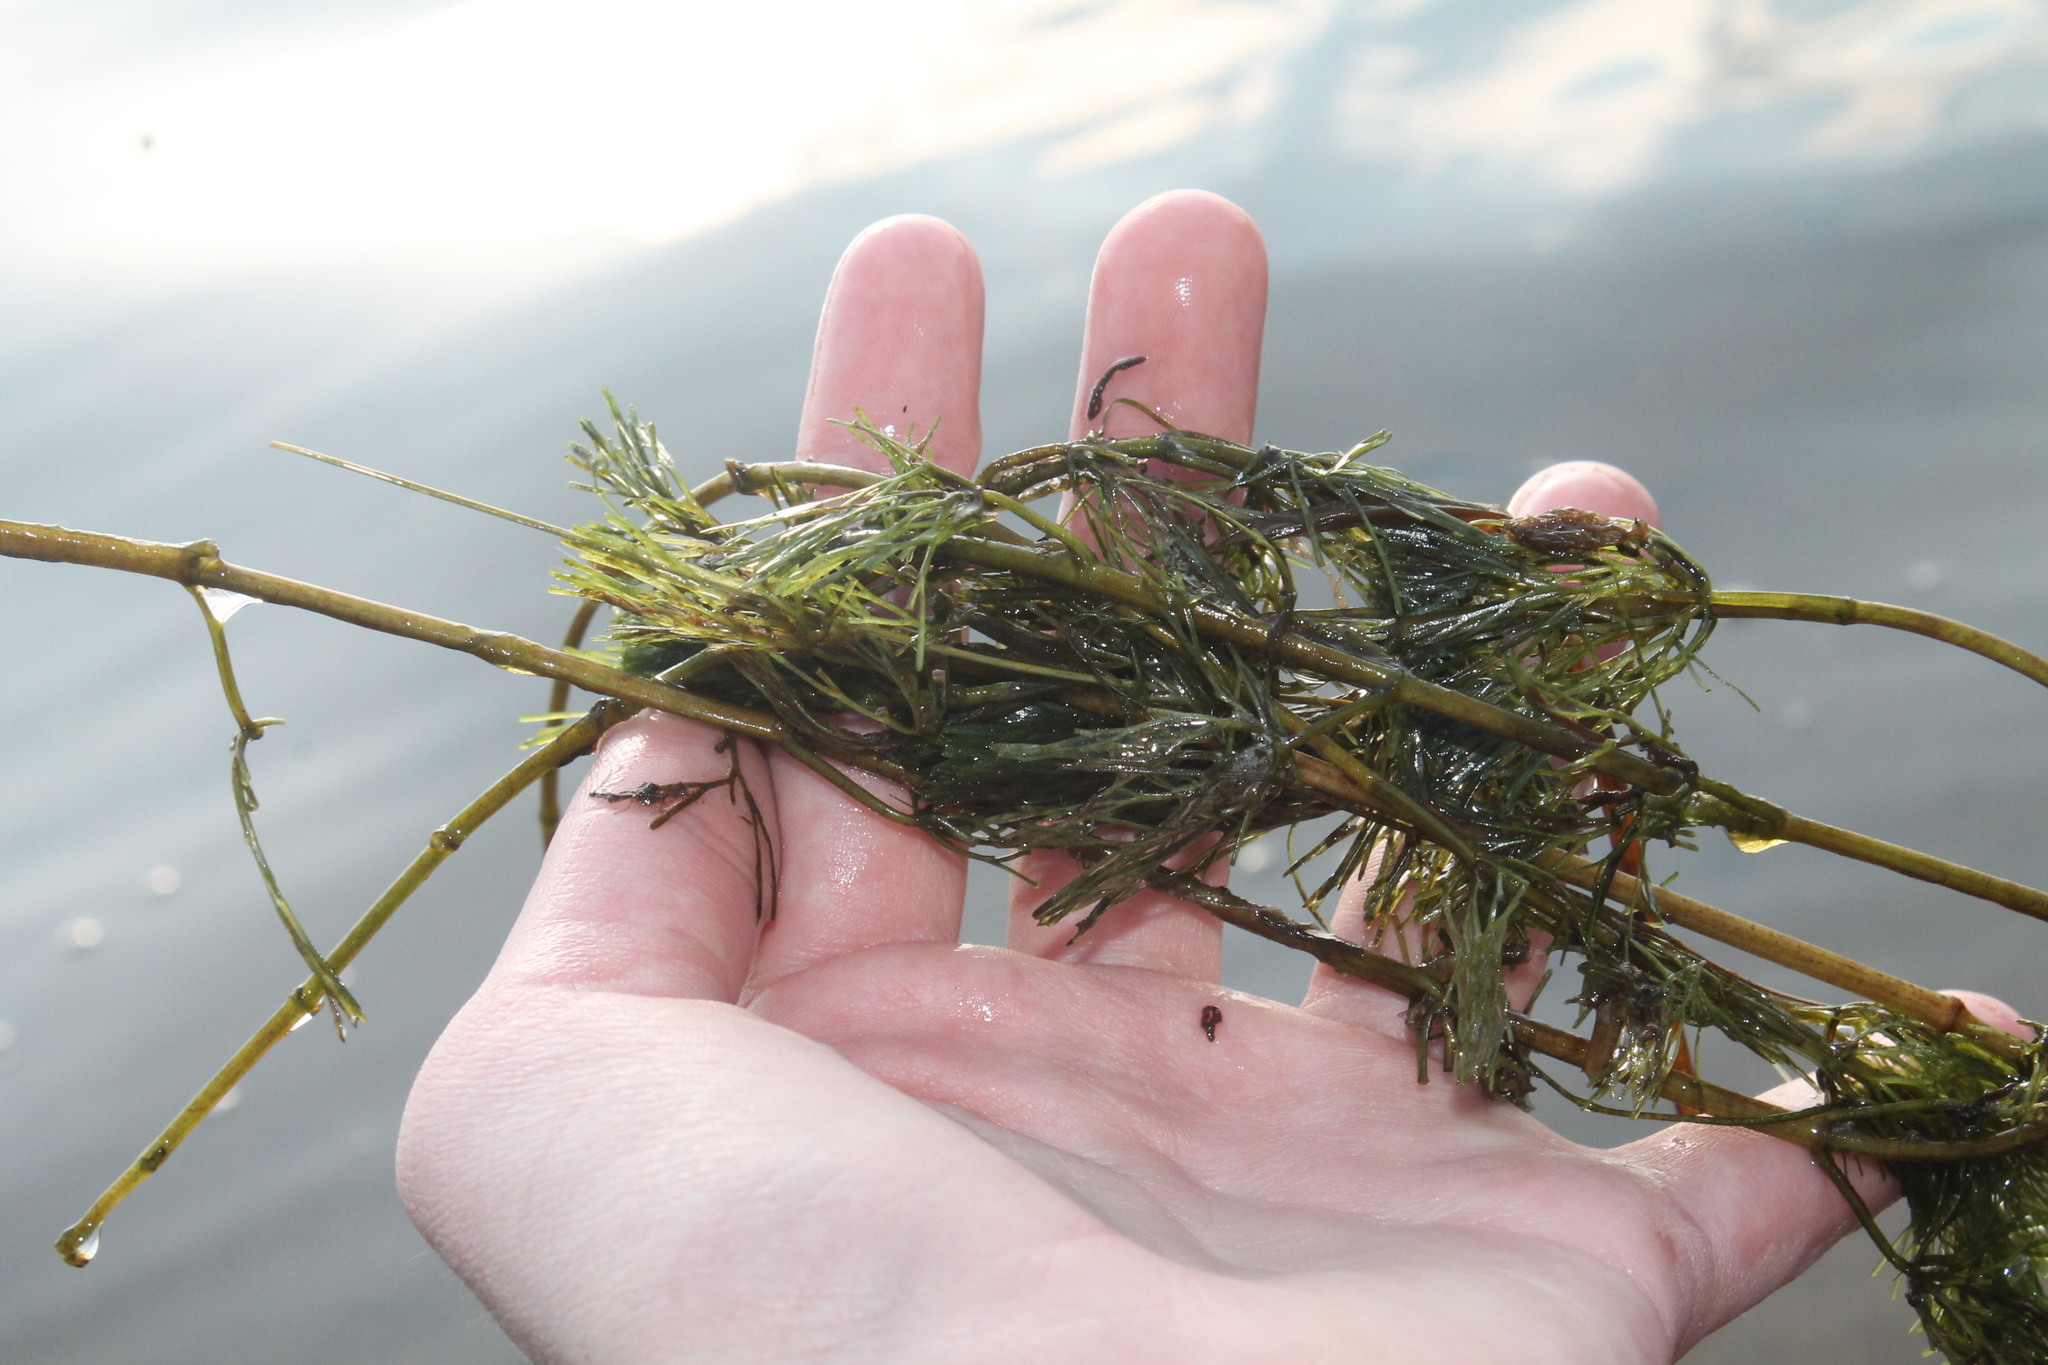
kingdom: Plantae
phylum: Tracheophyta
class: Magnoliopsida
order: Nymphaeales
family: Cabombaceae
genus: Cabomba
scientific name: Cabomba caroliniana
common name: Fanwort
